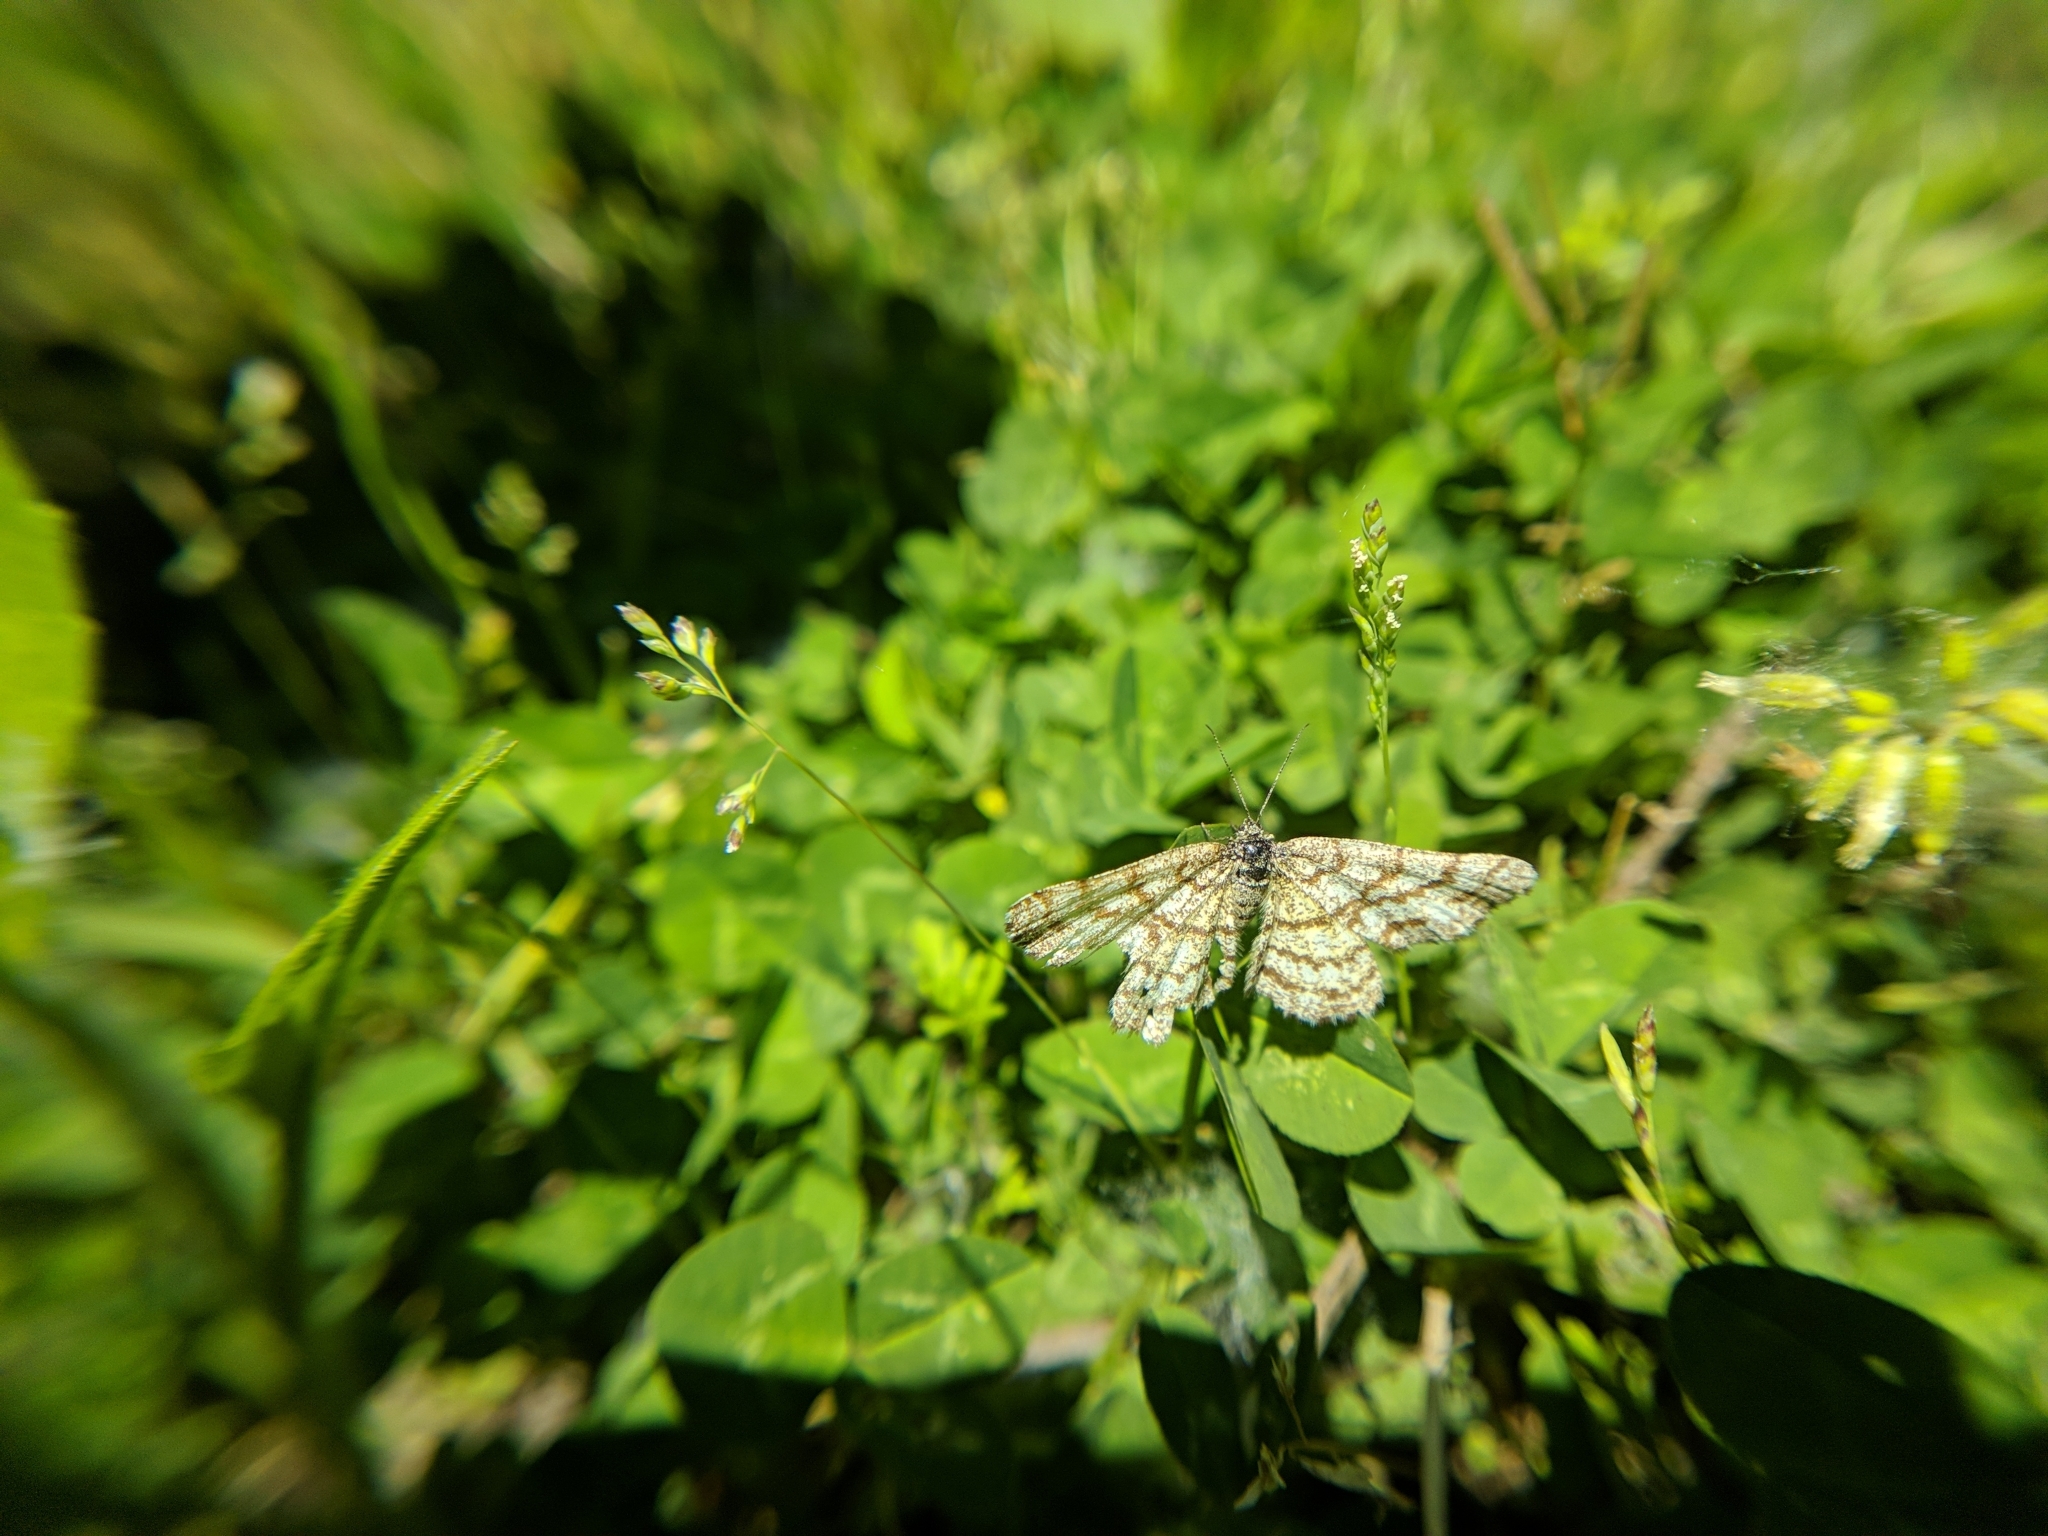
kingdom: Animalia
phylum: Arthropoda
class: Insecta
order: Lepidoptera
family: Geometridae
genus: Ematurga
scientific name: Ematurga atomaria
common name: Common heath
